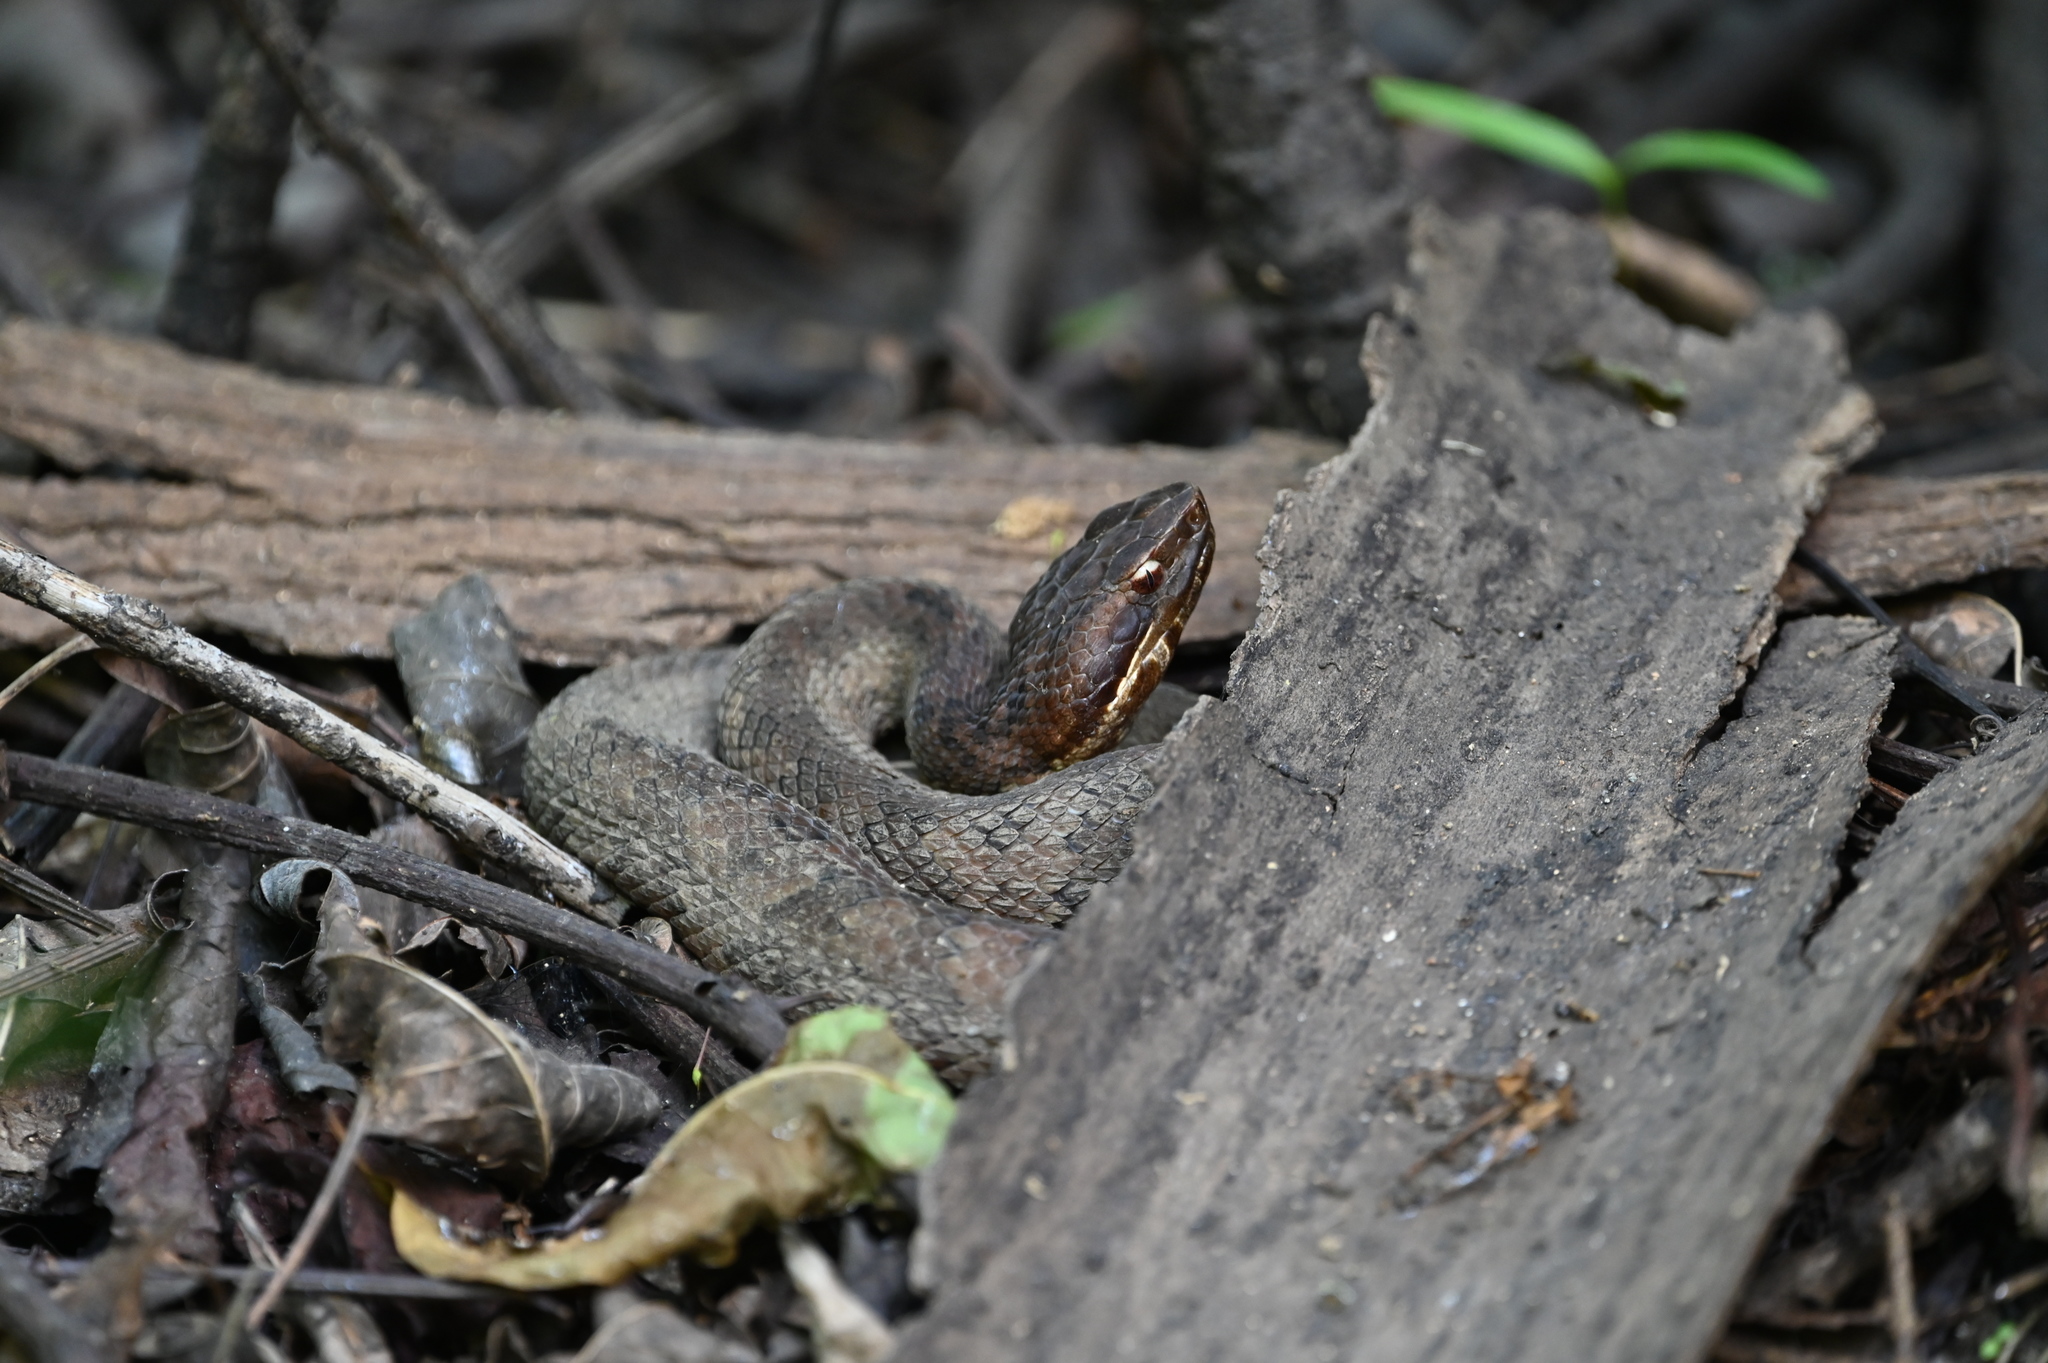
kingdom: Animalia
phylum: Chordata
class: Squamata
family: Viperidae
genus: Agkistrodon
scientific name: Agkistrodon piscivorus
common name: Cottonmouth
